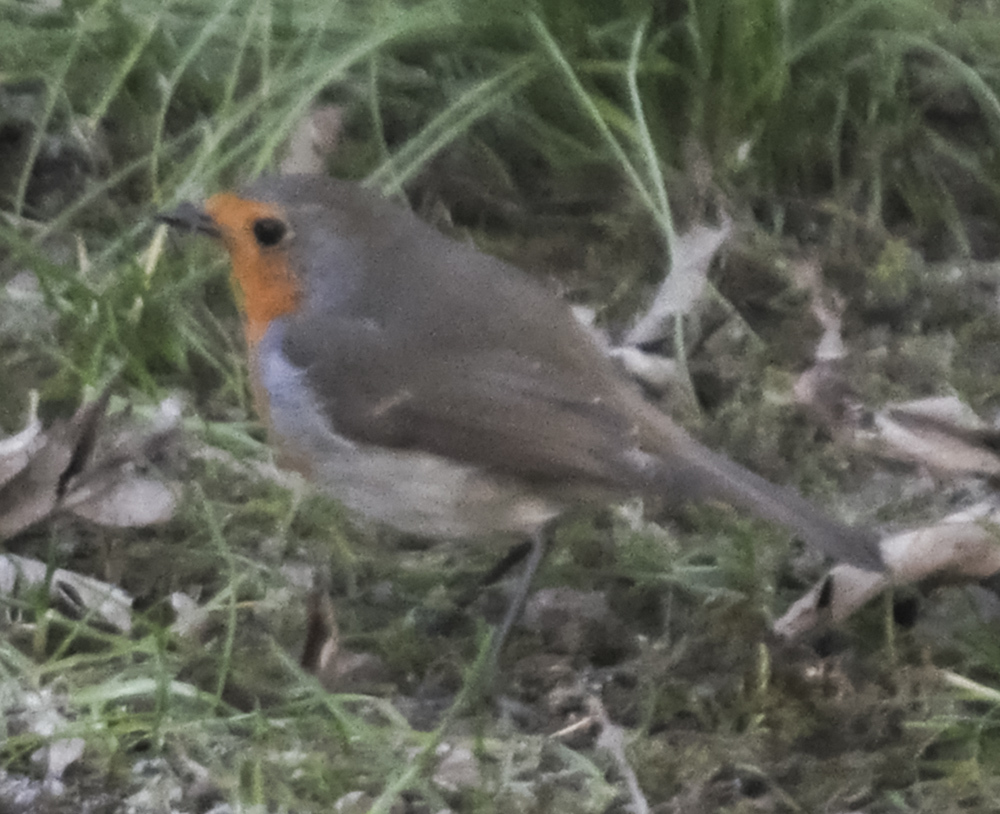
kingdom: Animalia
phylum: Chordata
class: Aves
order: Passeriformes
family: Muscicapidae
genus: Erithacus
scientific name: Erithacus rubecula
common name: European robin
